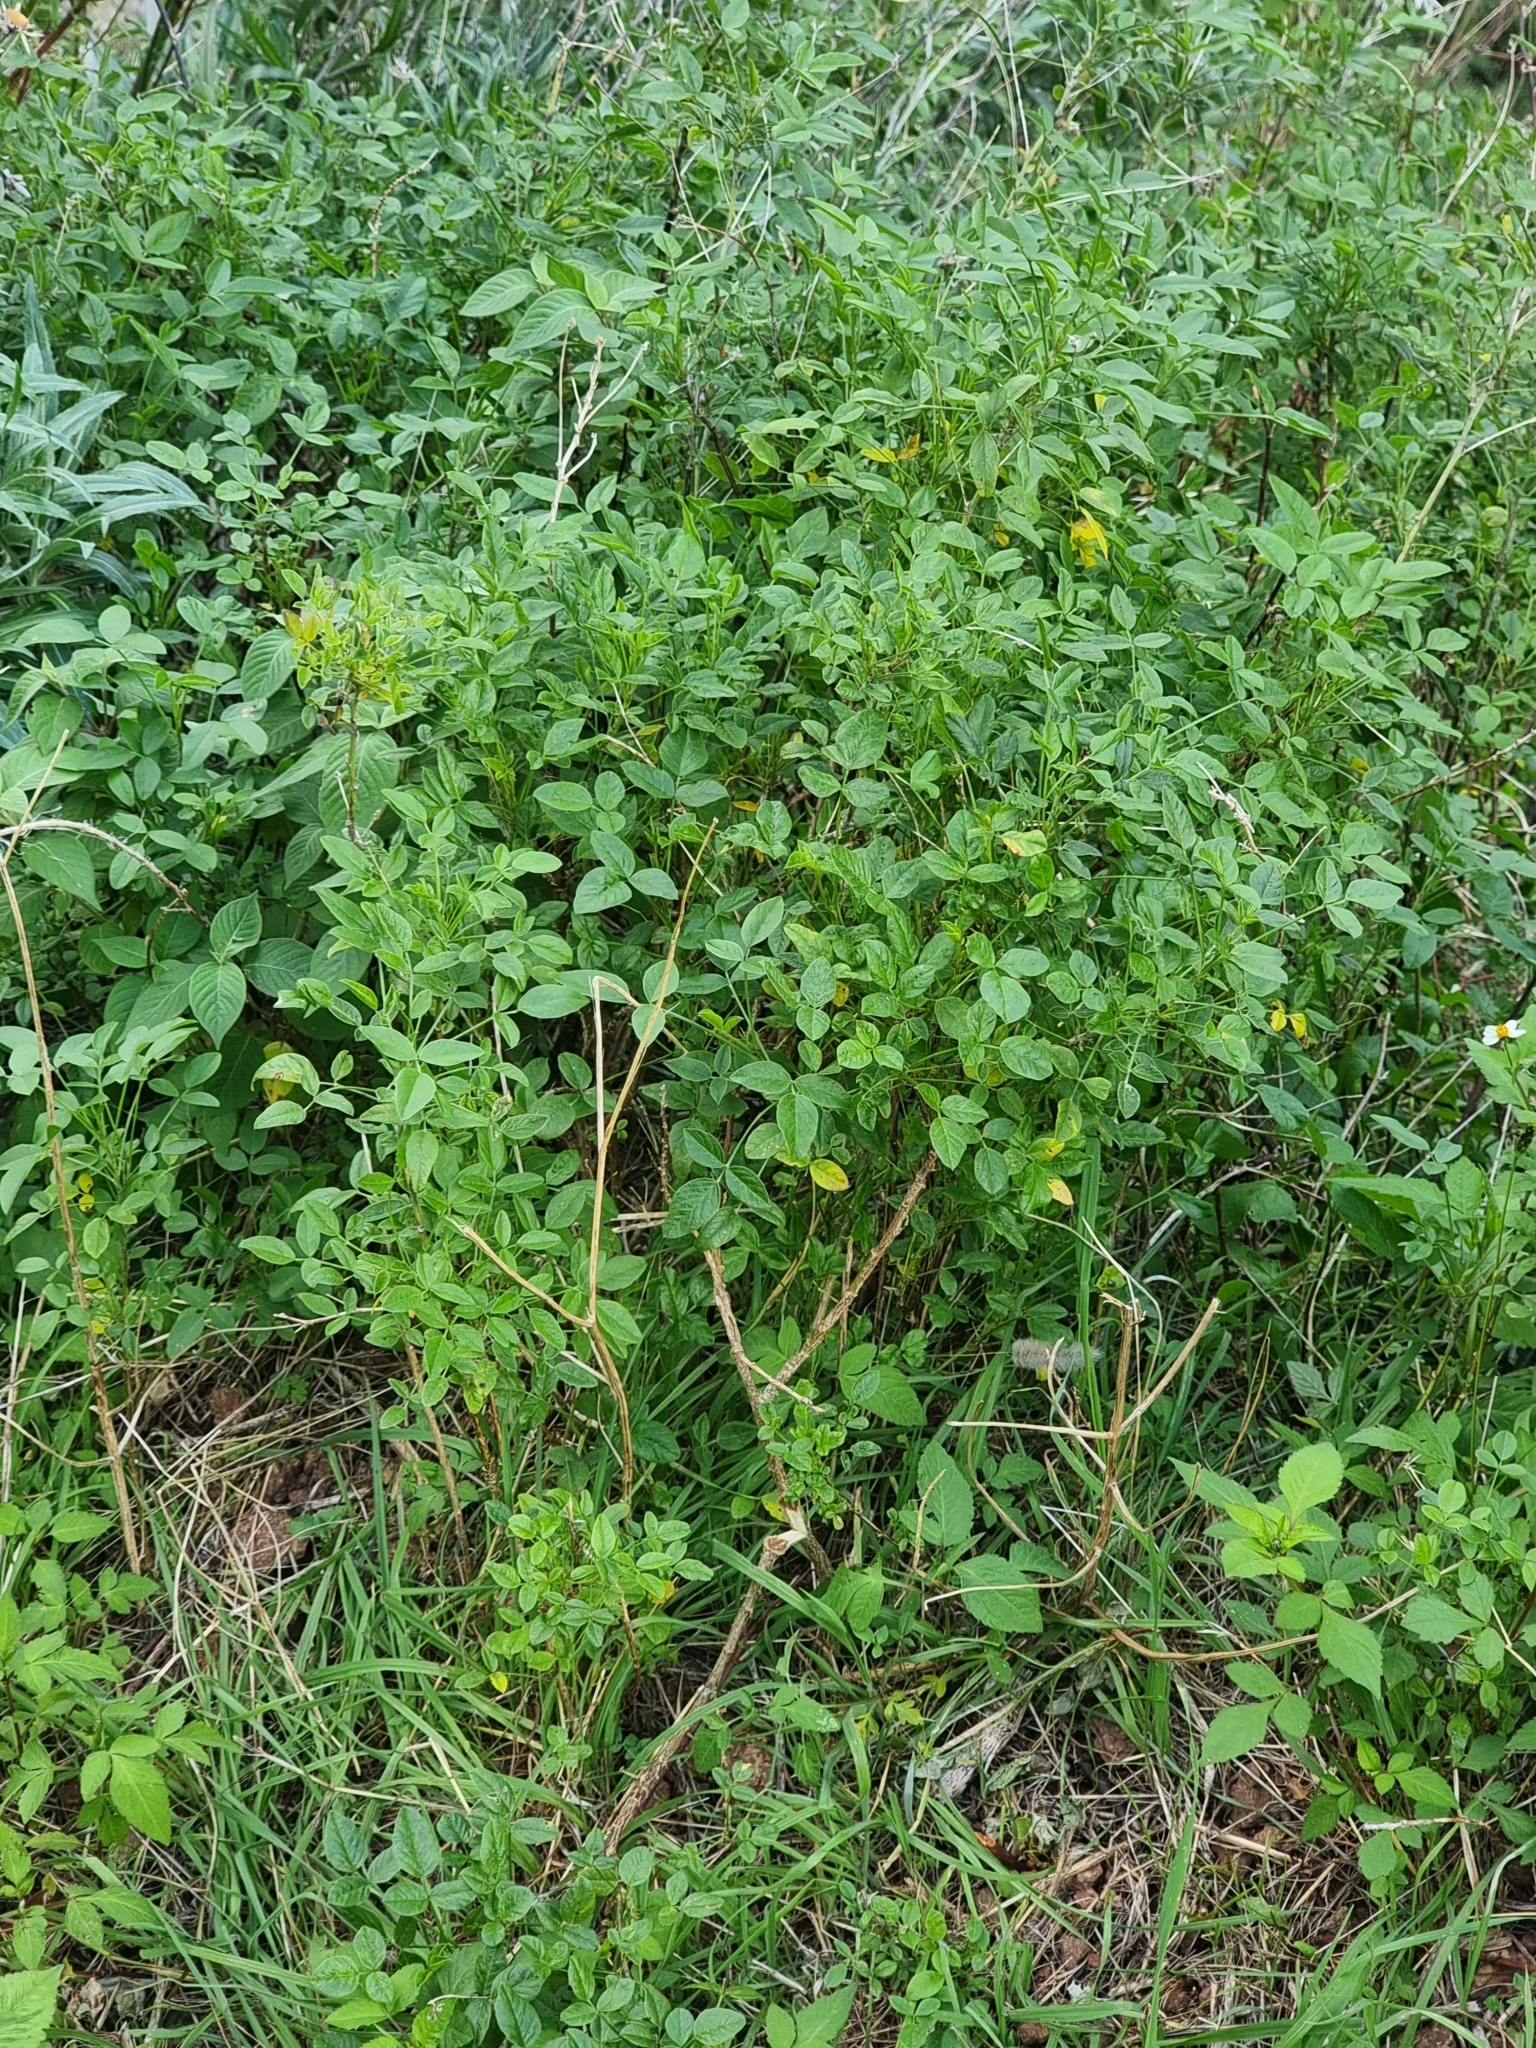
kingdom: Plantae
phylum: Tracheophyta
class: Magnoliopsida
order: Fabales
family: Fabaceae
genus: Bituminaria
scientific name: Bituminaria bituminosa
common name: Arabian pea
